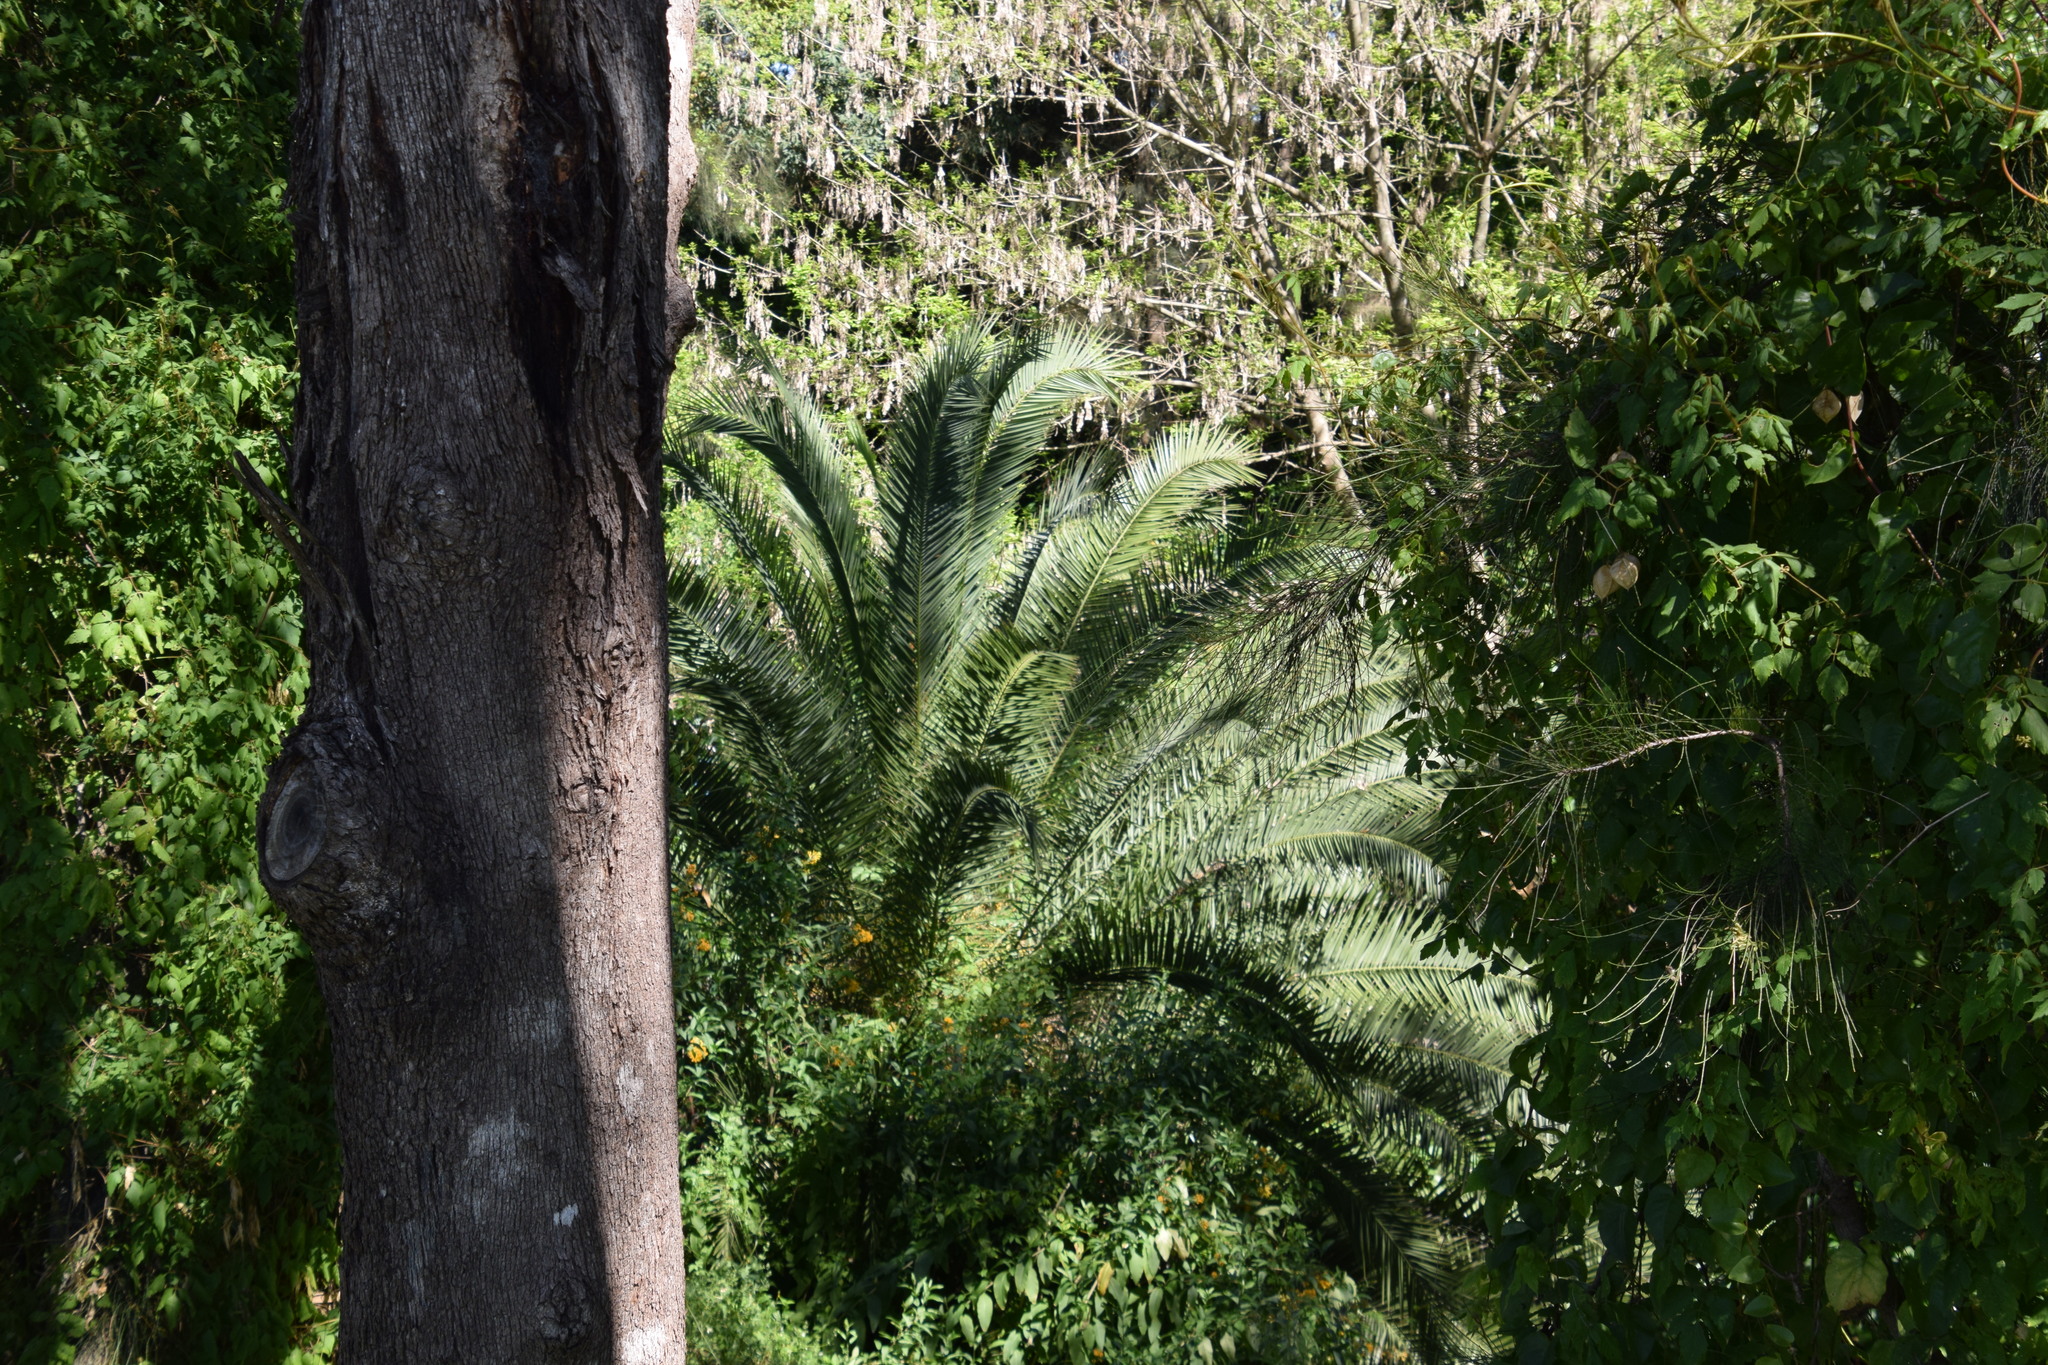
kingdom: Plantae
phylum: Tracheophyta
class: Liliopsida
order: Arecales
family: Arecaceae
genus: Phoenix
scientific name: Phoenix canariensis
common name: Canary island date palm
